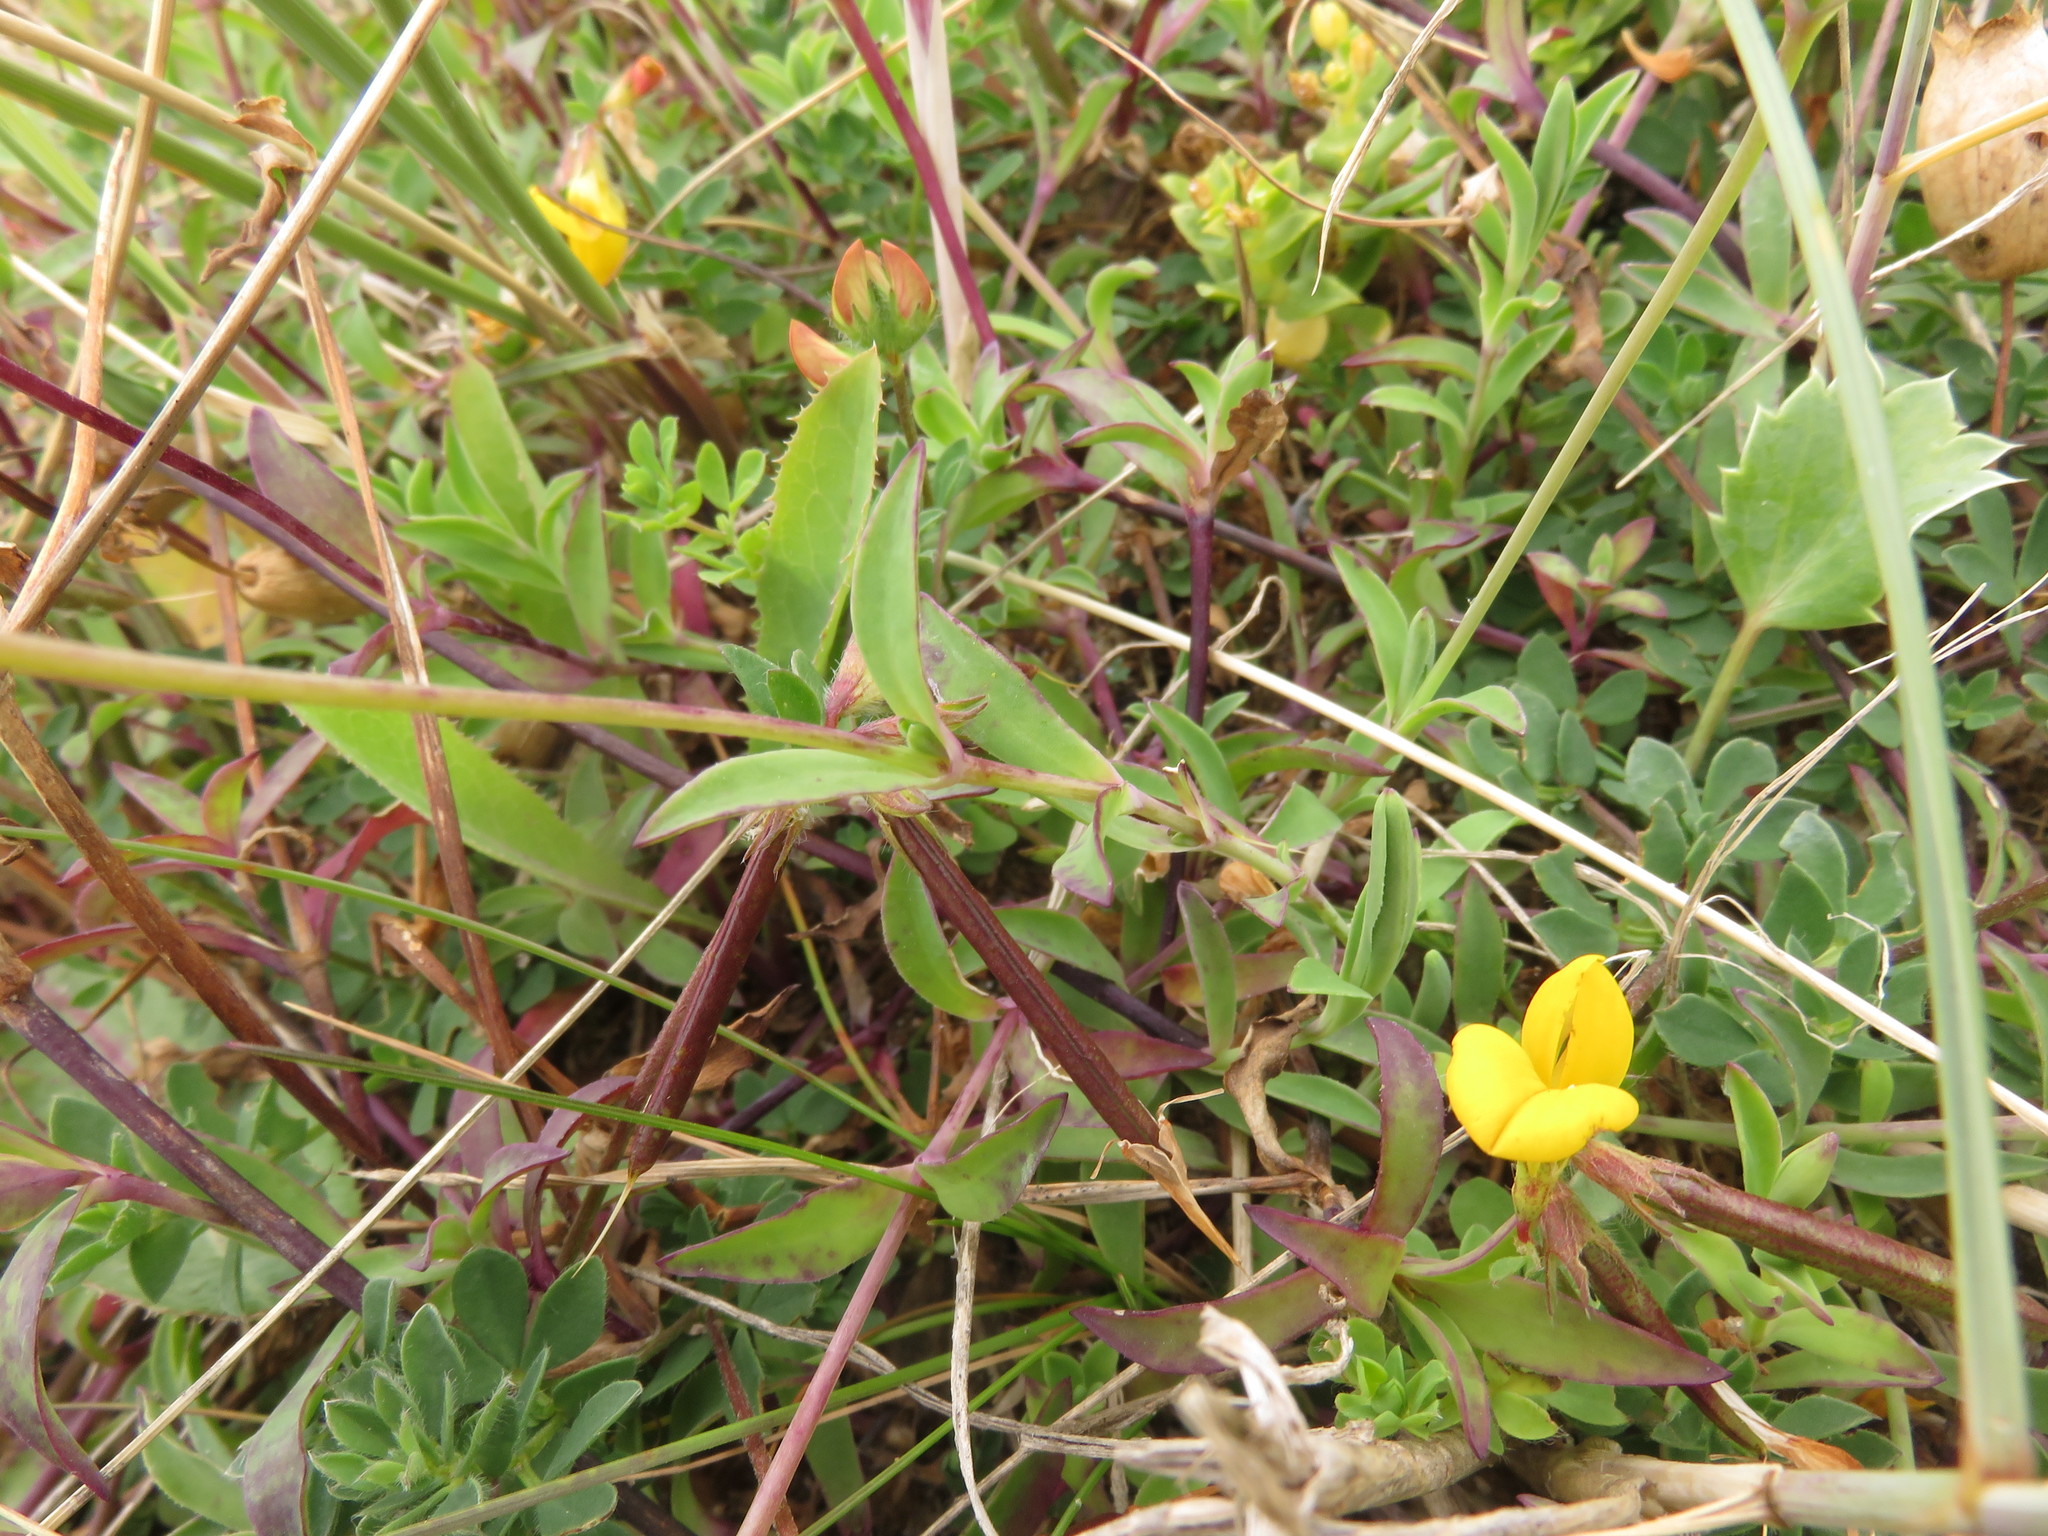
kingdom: Plantae
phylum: Tracheophyta
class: Magnoliopsida
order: Caryophyllales
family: Caryophyllaceae
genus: Silene
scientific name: Silene uniflora
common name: Sea campion
